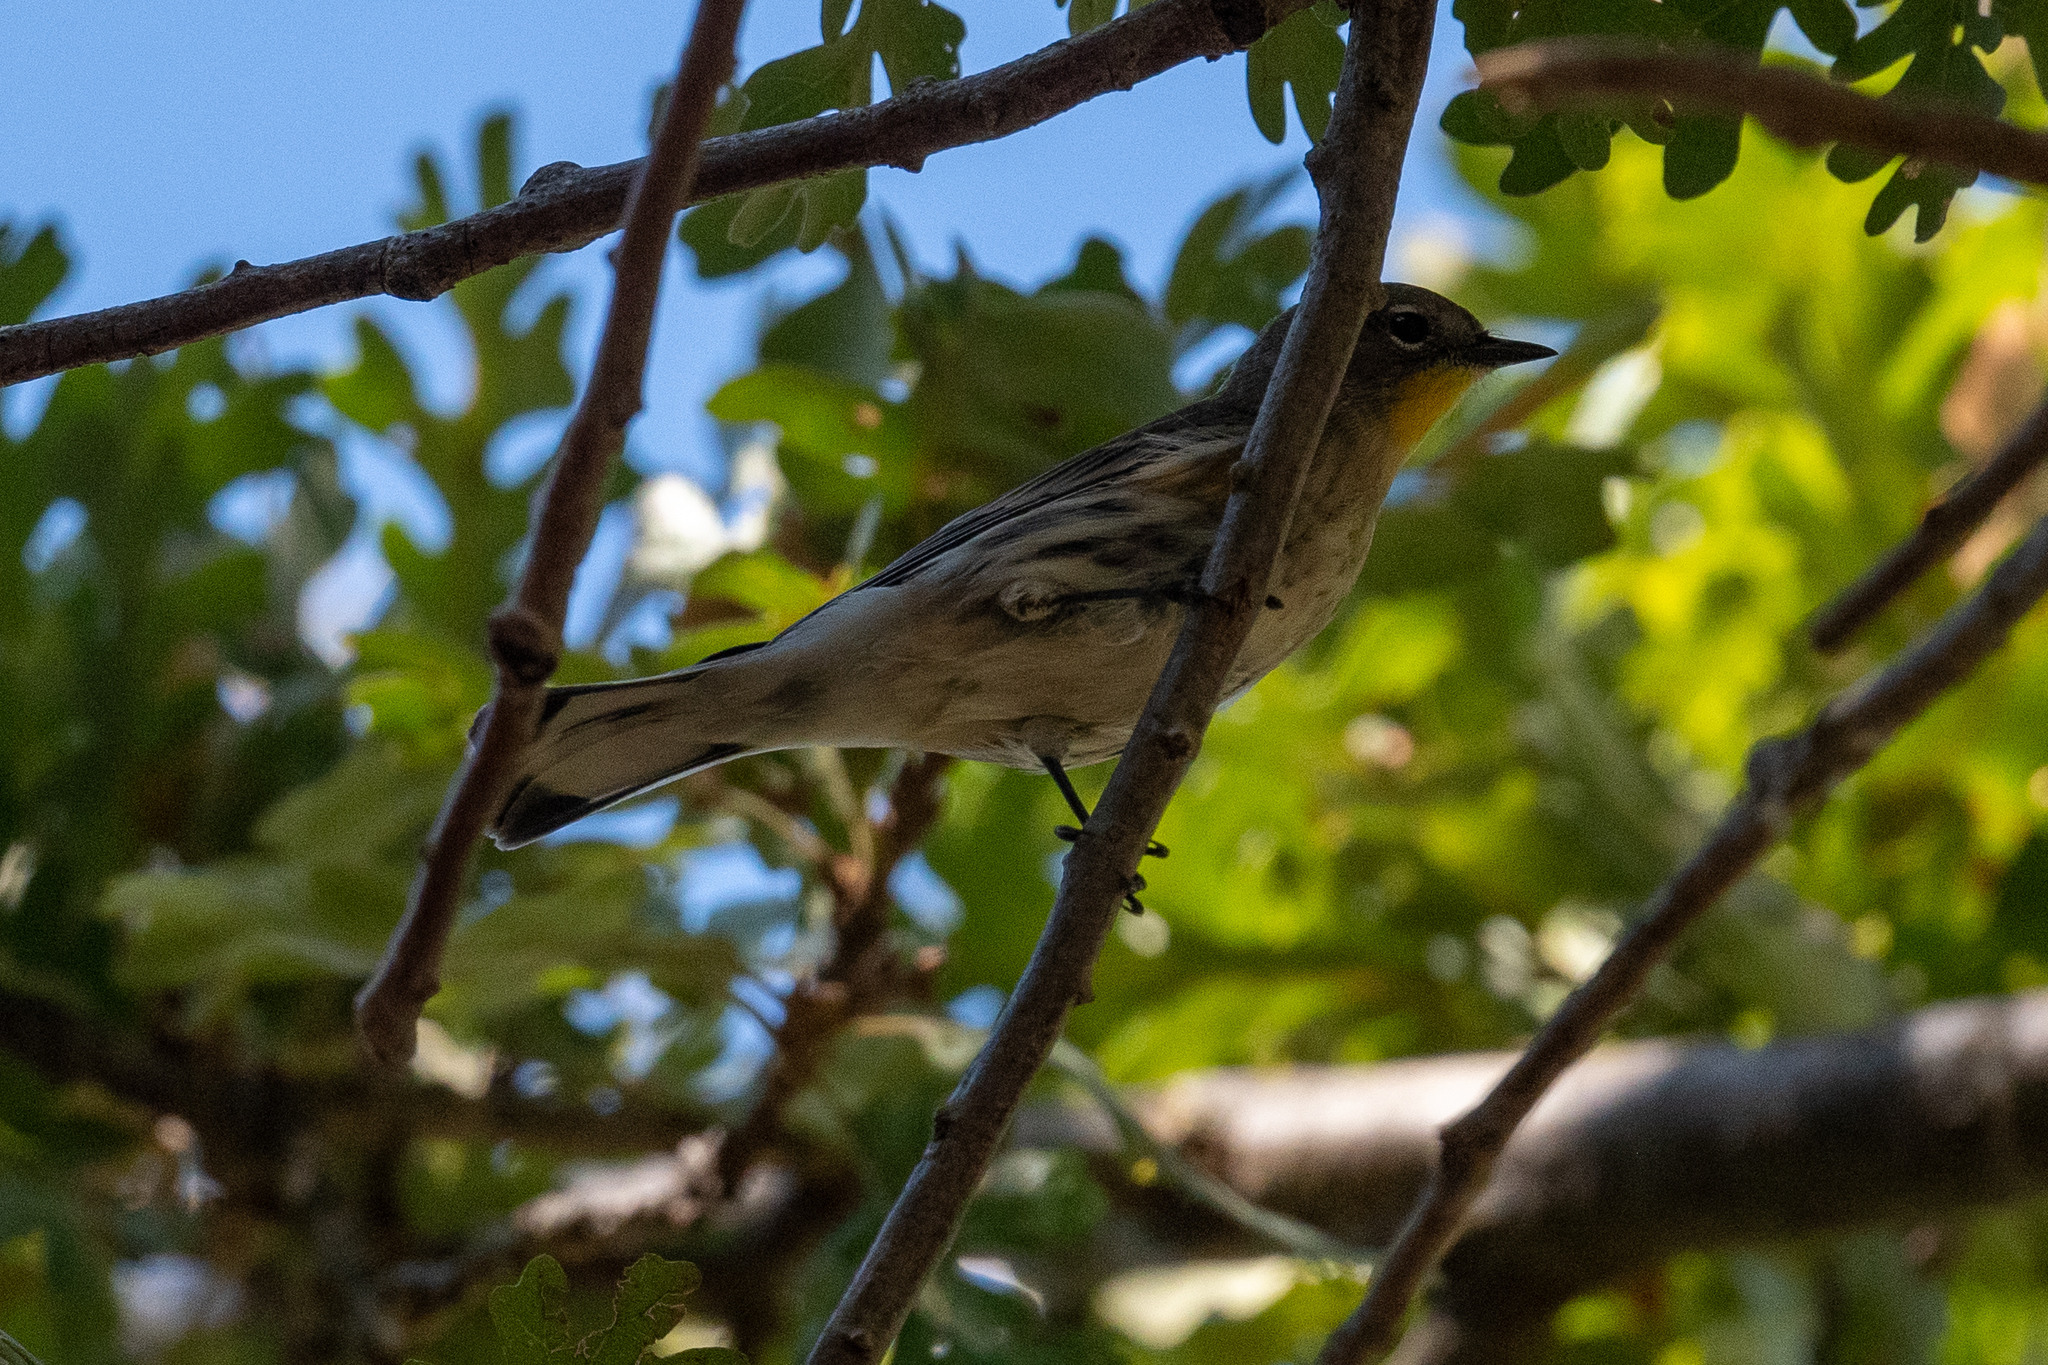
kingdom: Animalia
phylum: Chordata
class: Aves
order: Passeriformes
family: Parulidae
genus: Setophaga
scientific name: Setophaga coronata
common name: Myrtle warbler
